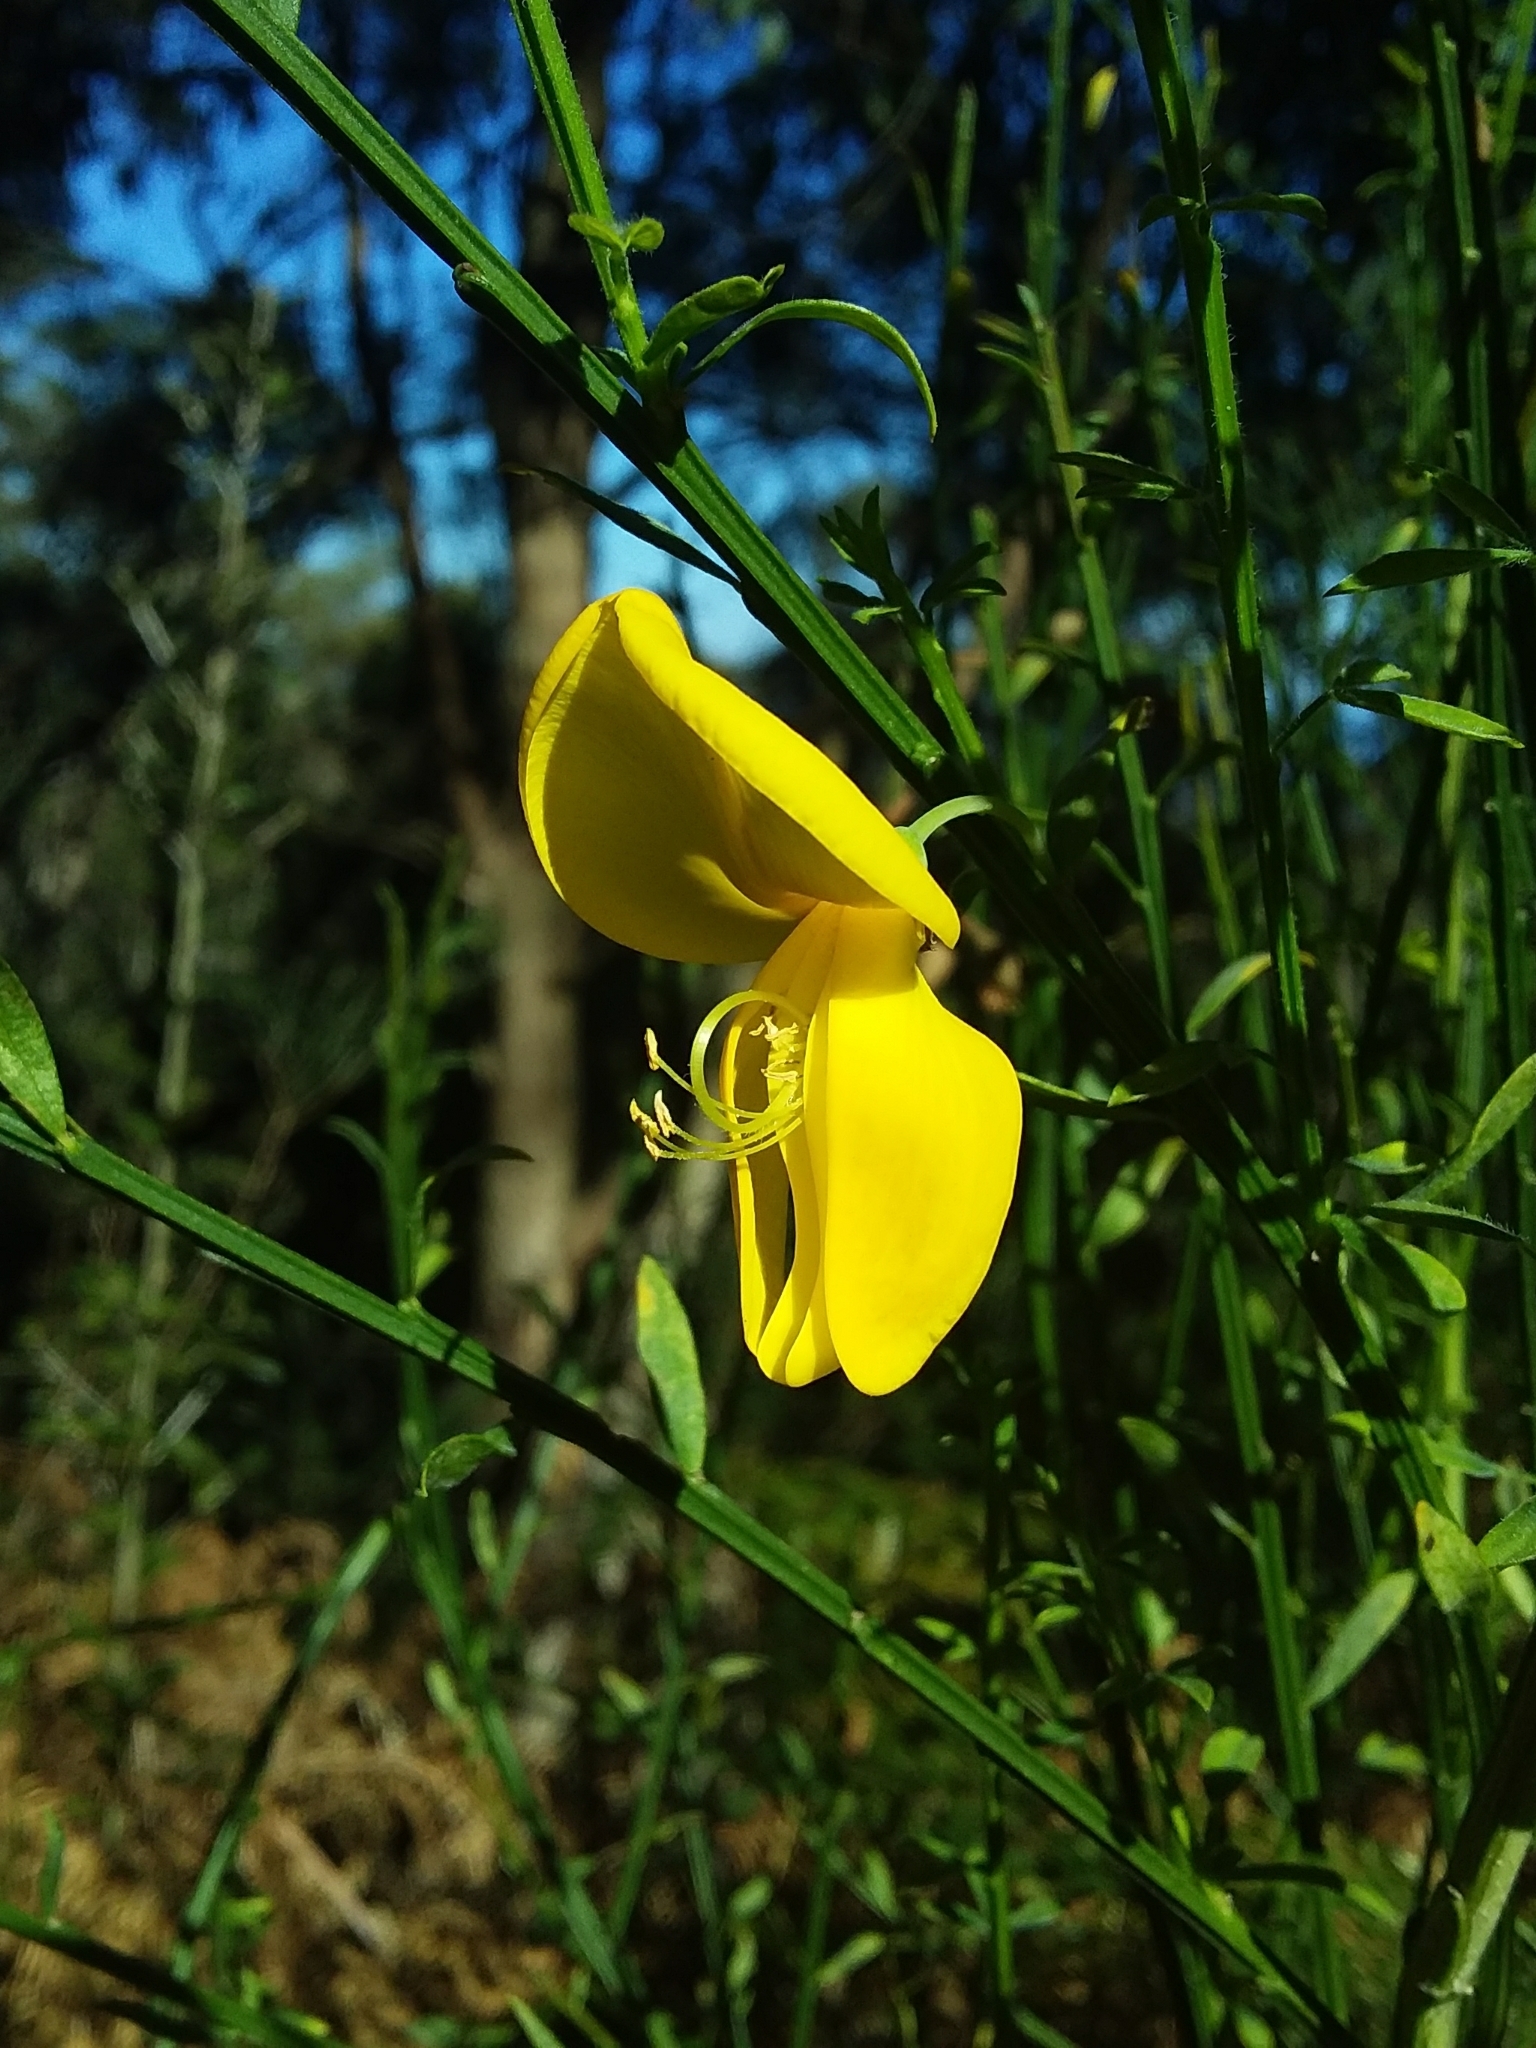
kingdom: Plantae
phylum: Tracheophyta
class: Magnoliopsida
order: Fabales
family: Fabaceae
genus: Cytisus
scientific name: Cytisus scoparius
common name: Scotch broom
